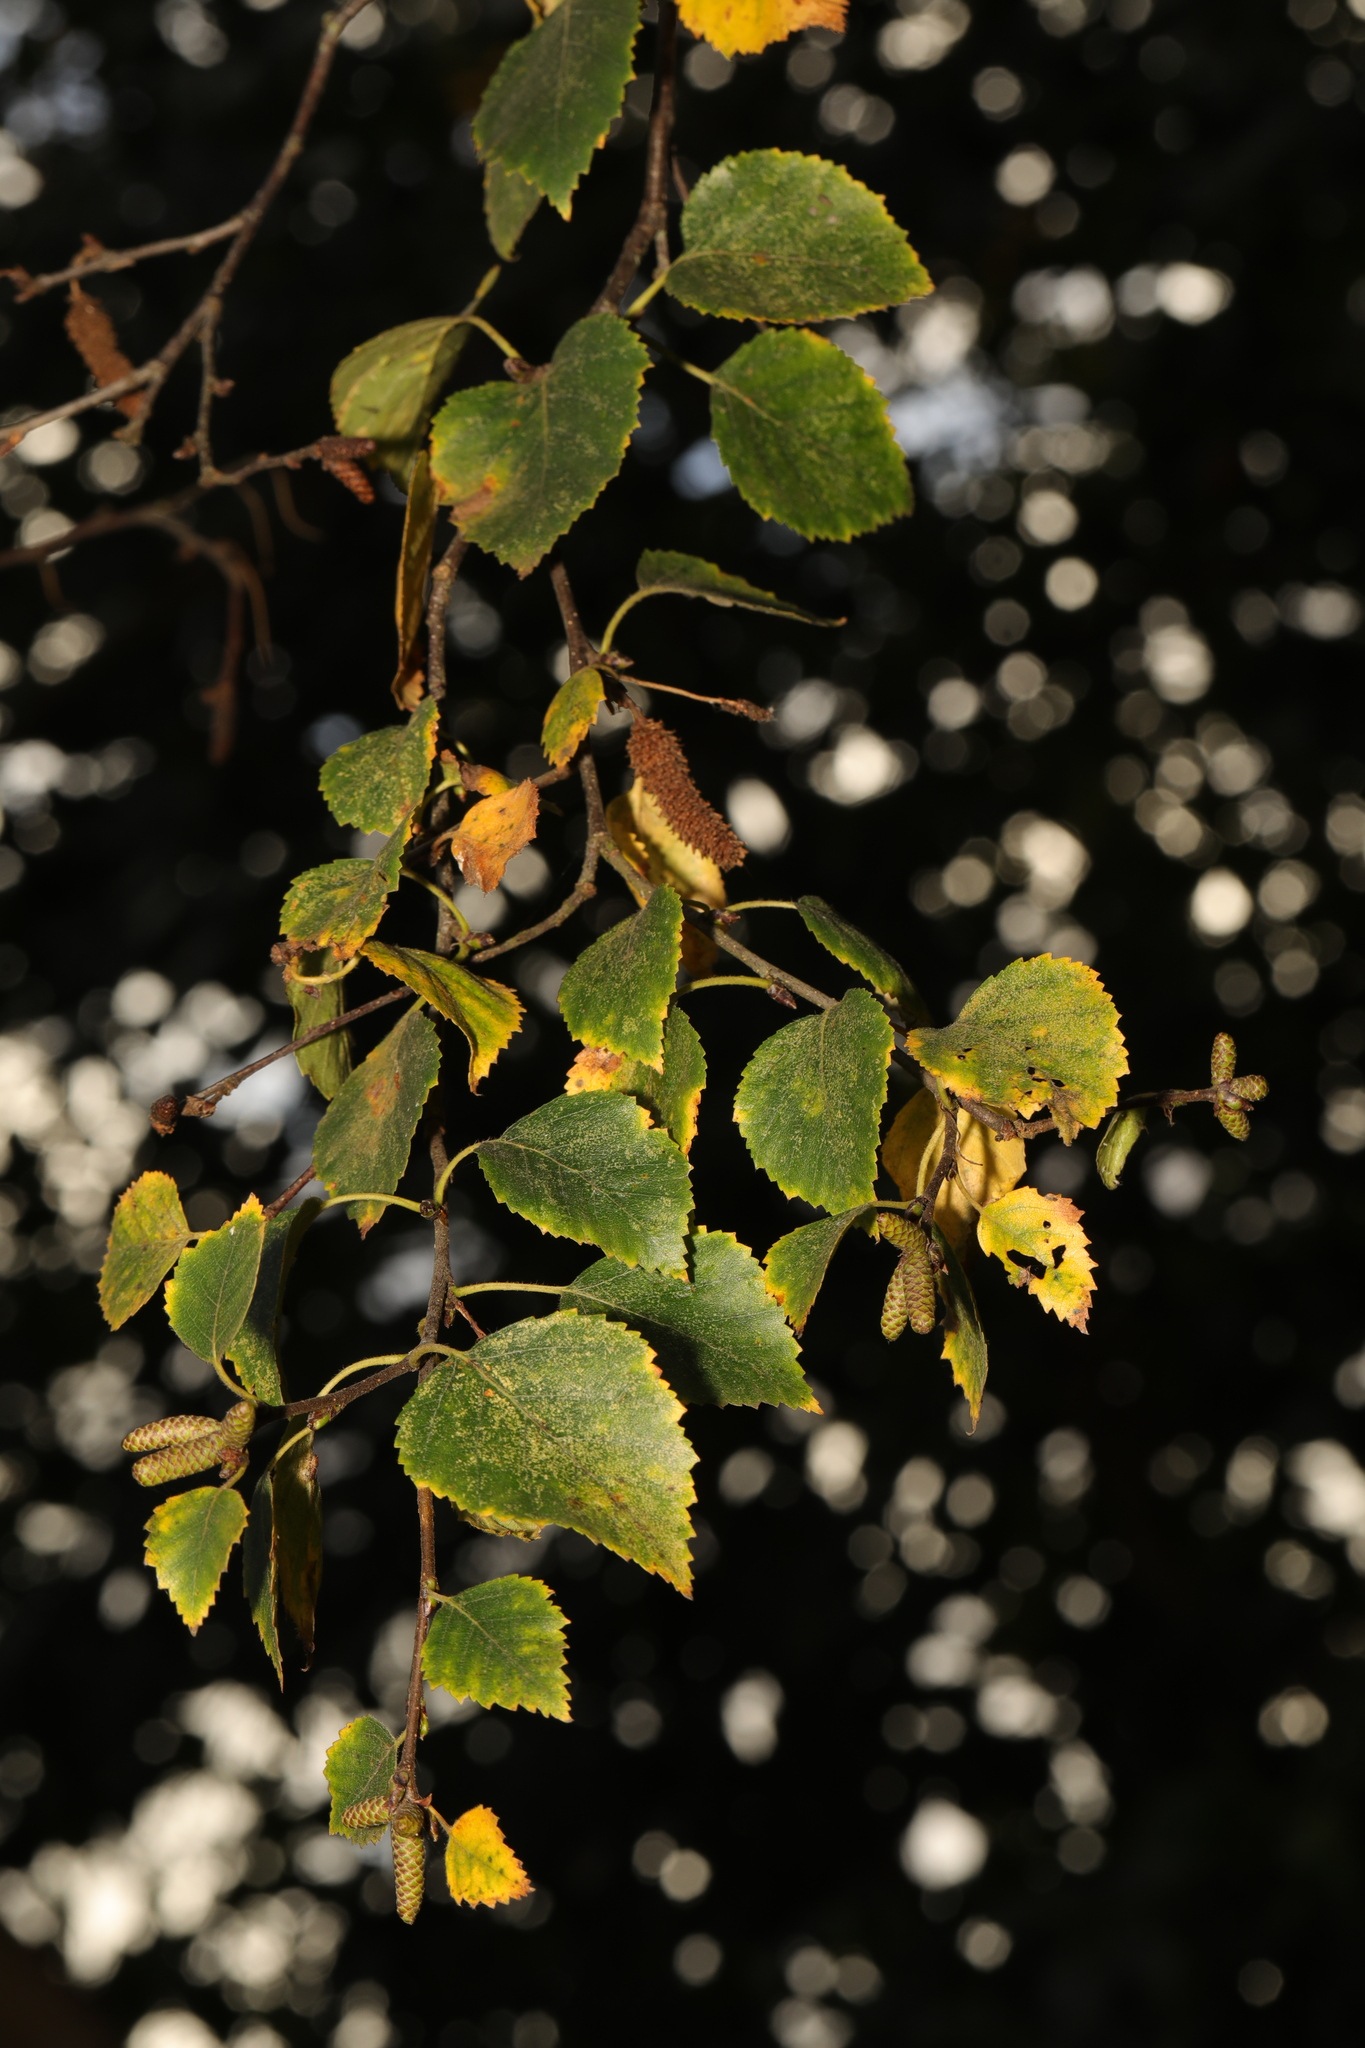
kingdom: Plantae
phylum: Tracheophyta
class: Magnoliopsida
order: Fagales
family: Betulaceae
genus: Betula
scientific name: Betula pendula
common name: Silver birch
